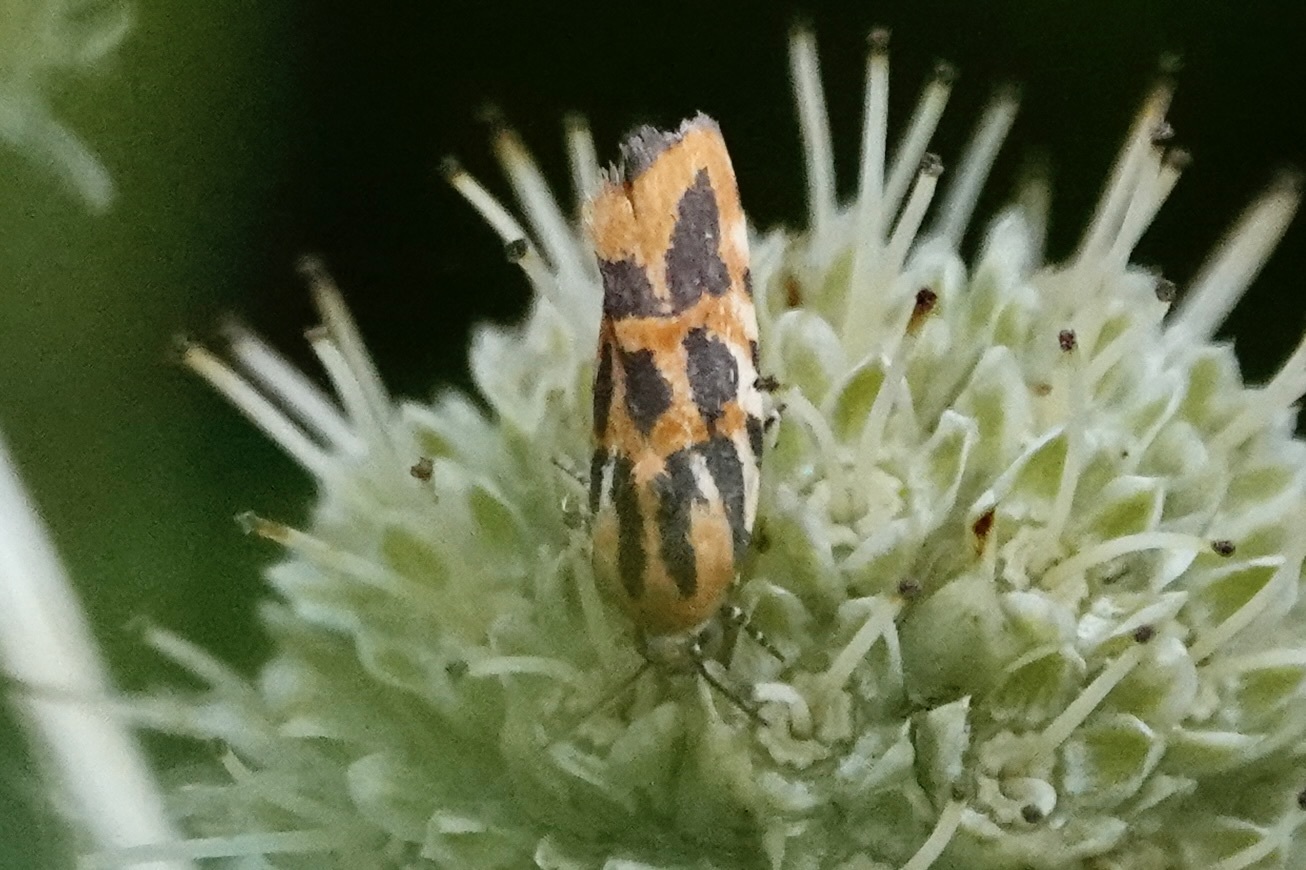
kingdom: Animalia
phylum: Arthropoda
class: Insecta
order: Lepidoptera
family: Noctuidae
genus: Acontia
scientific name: Acontia leo
